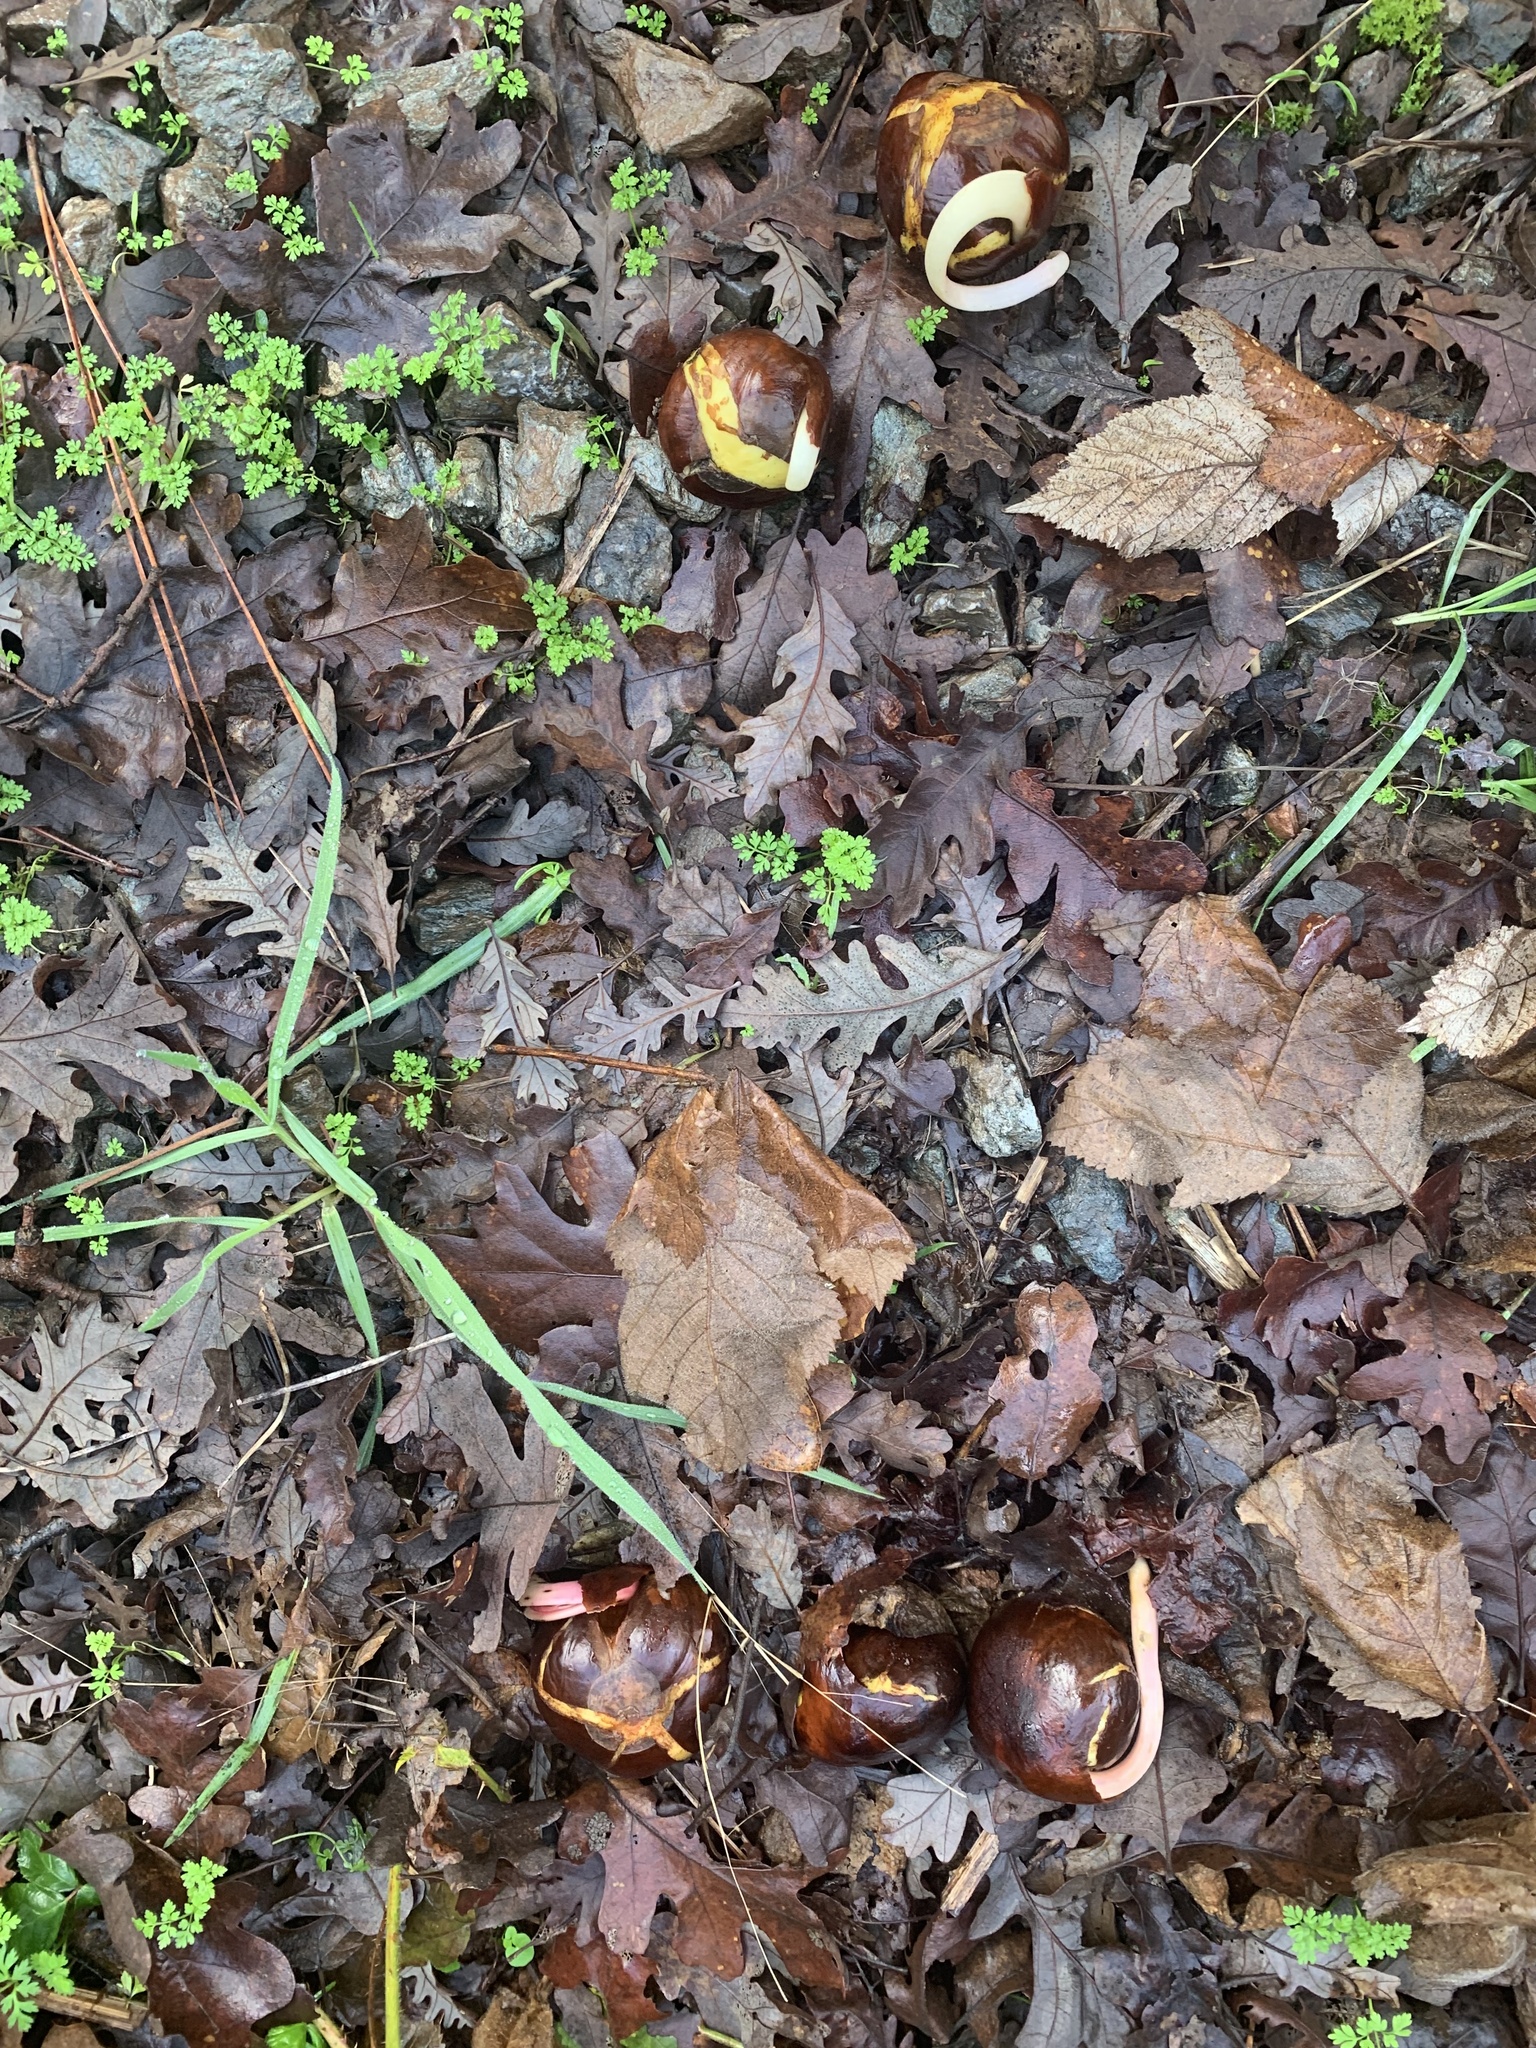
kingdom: Plantae
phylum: Tracheophyta
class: Magnoliopsida
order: Sapindales
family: Sapindaceae
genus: Aesculus
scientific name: Aesculus californica
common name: California buckeye
